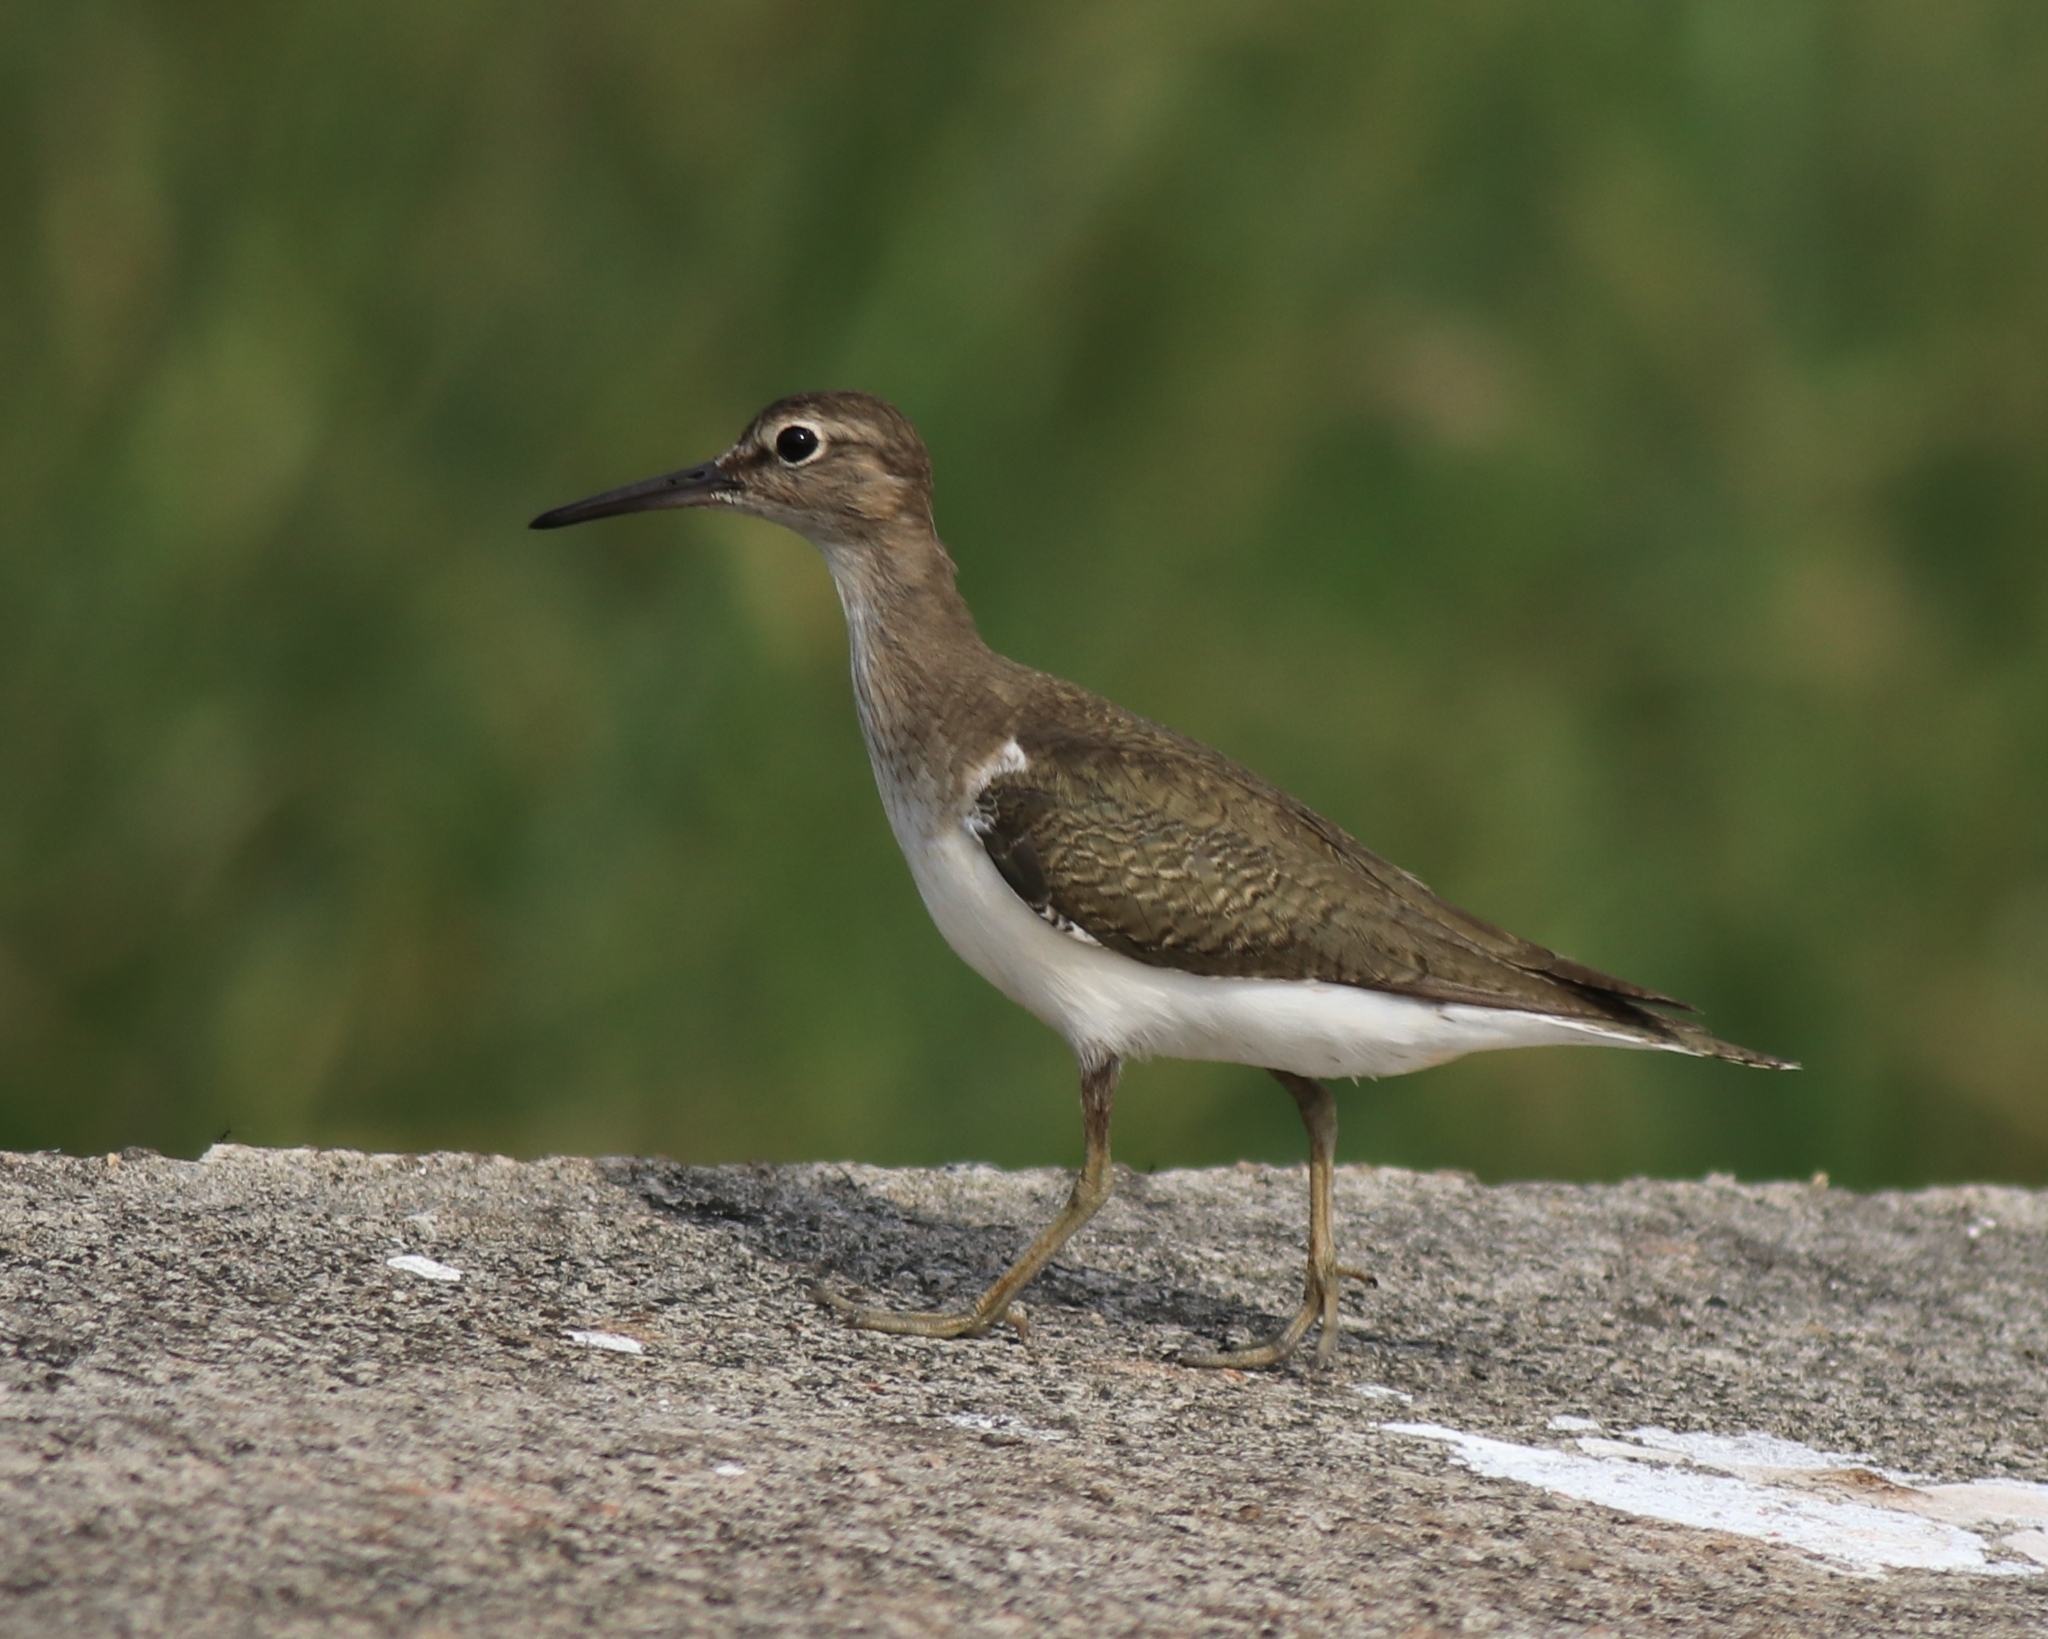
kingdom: Animalia
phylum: Chordata
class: Aves
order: Charadriiformes
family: Scolopacidae
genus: Actitis
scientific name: Actitis hypoleucos
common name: Common sandpiper
